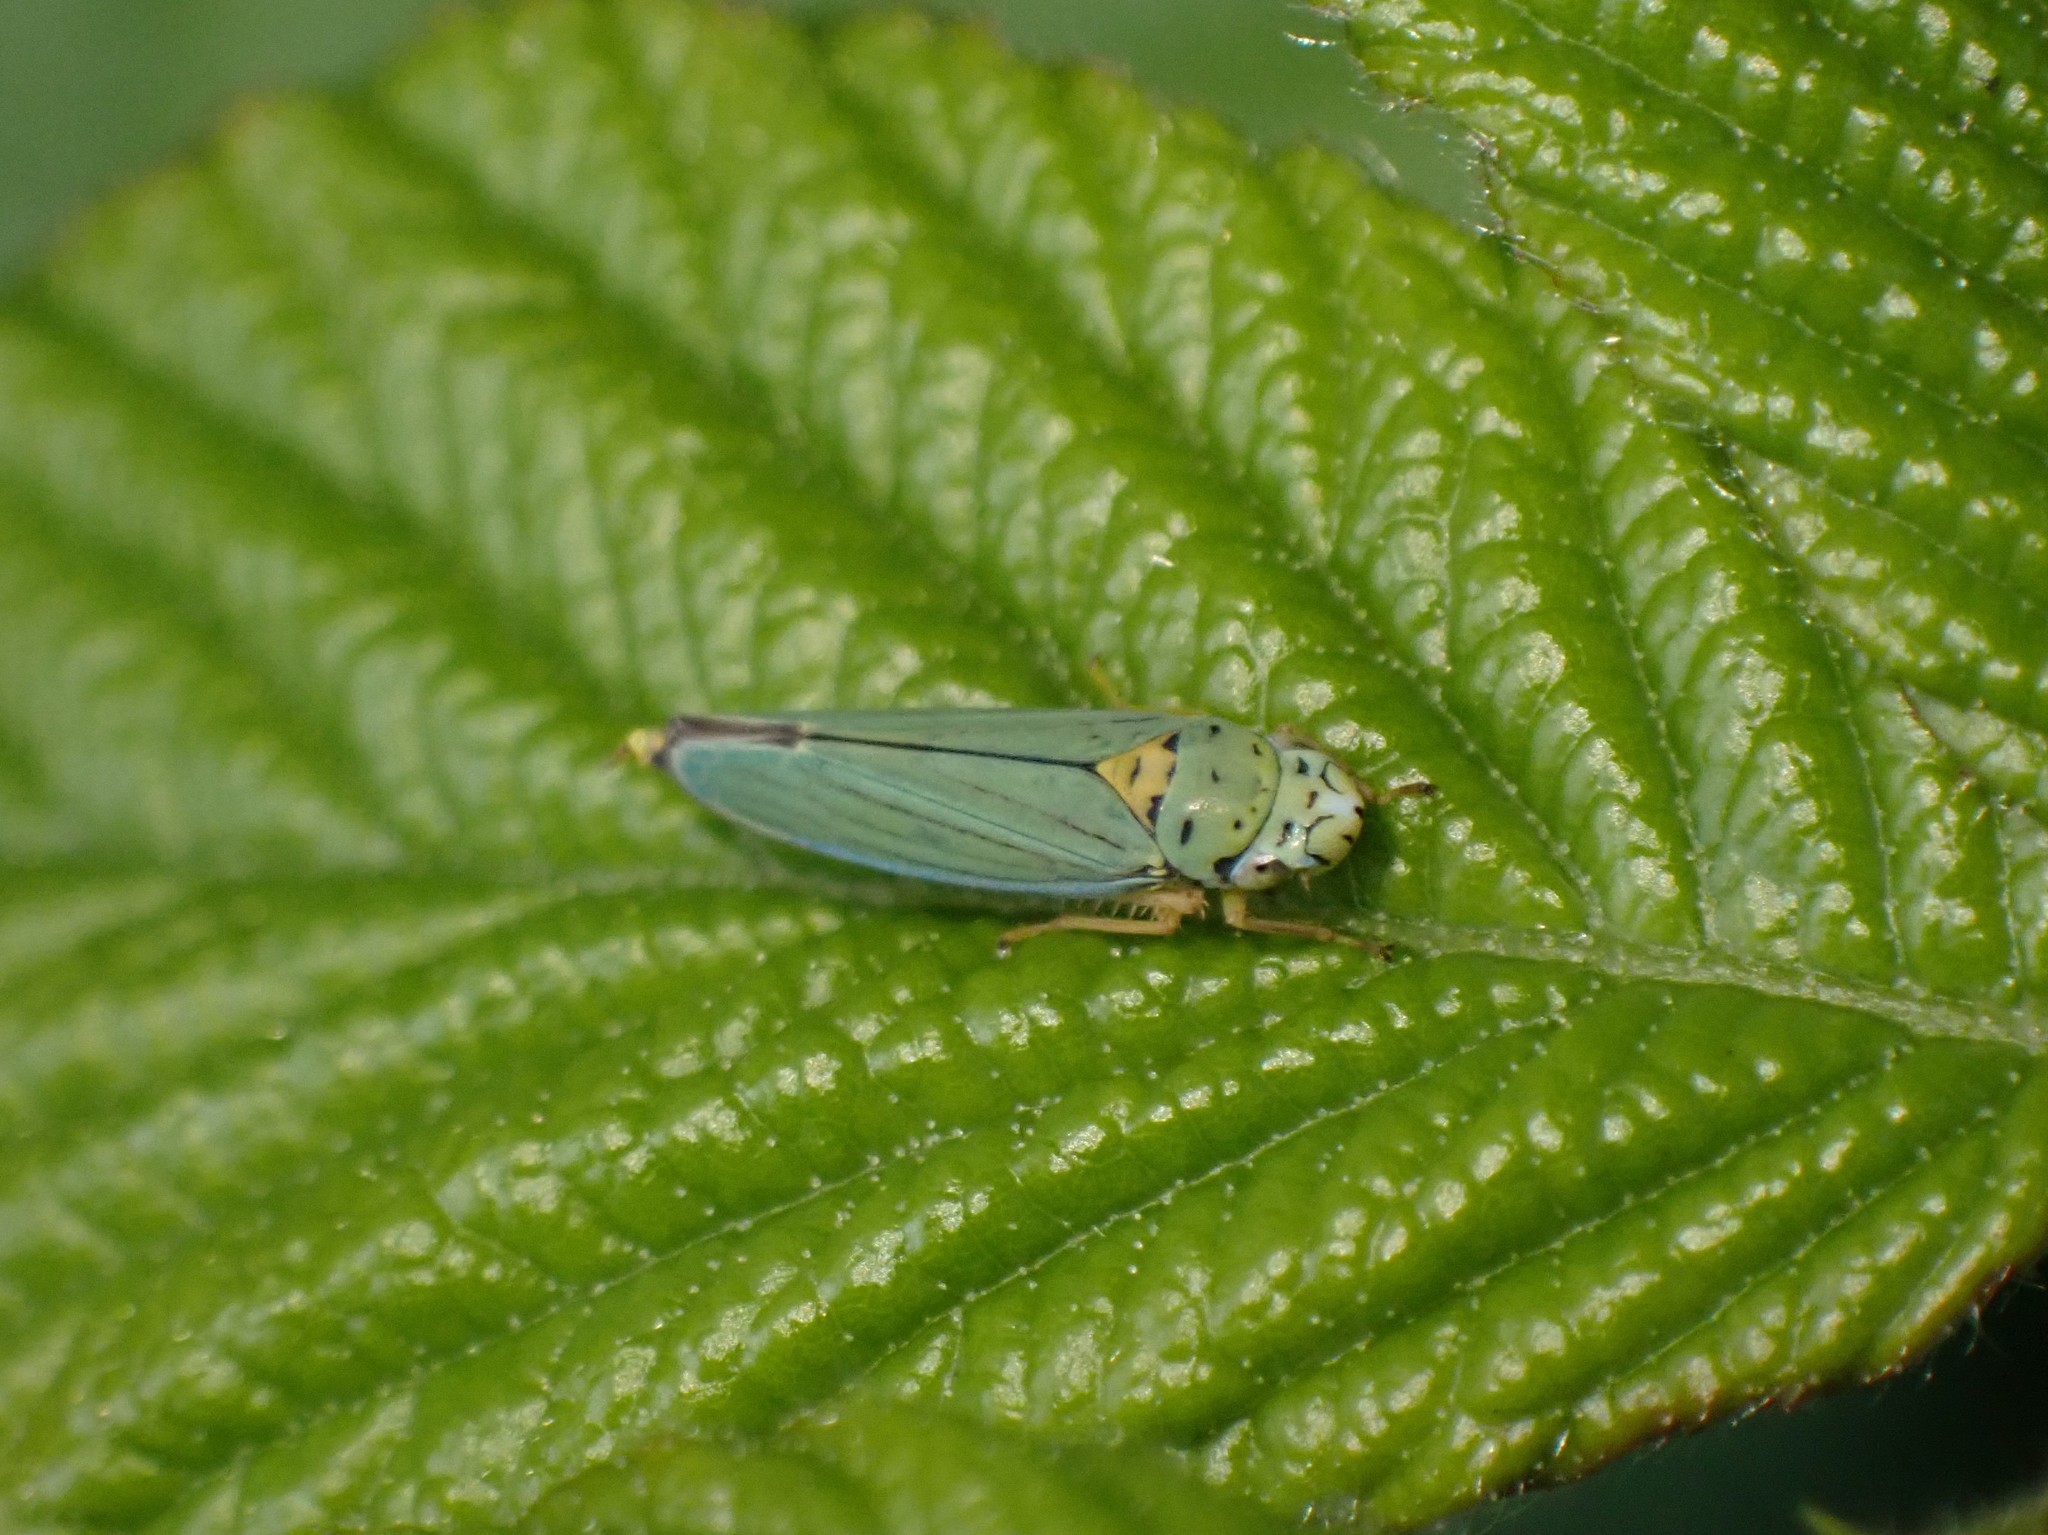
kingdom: Animalia
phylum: Arthropoda
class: Insecta
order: Hemiptera
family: Cicadellidae
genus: Graphocephala
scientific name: Graphocephala atropunctata
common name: Blue-green sharpshooter
